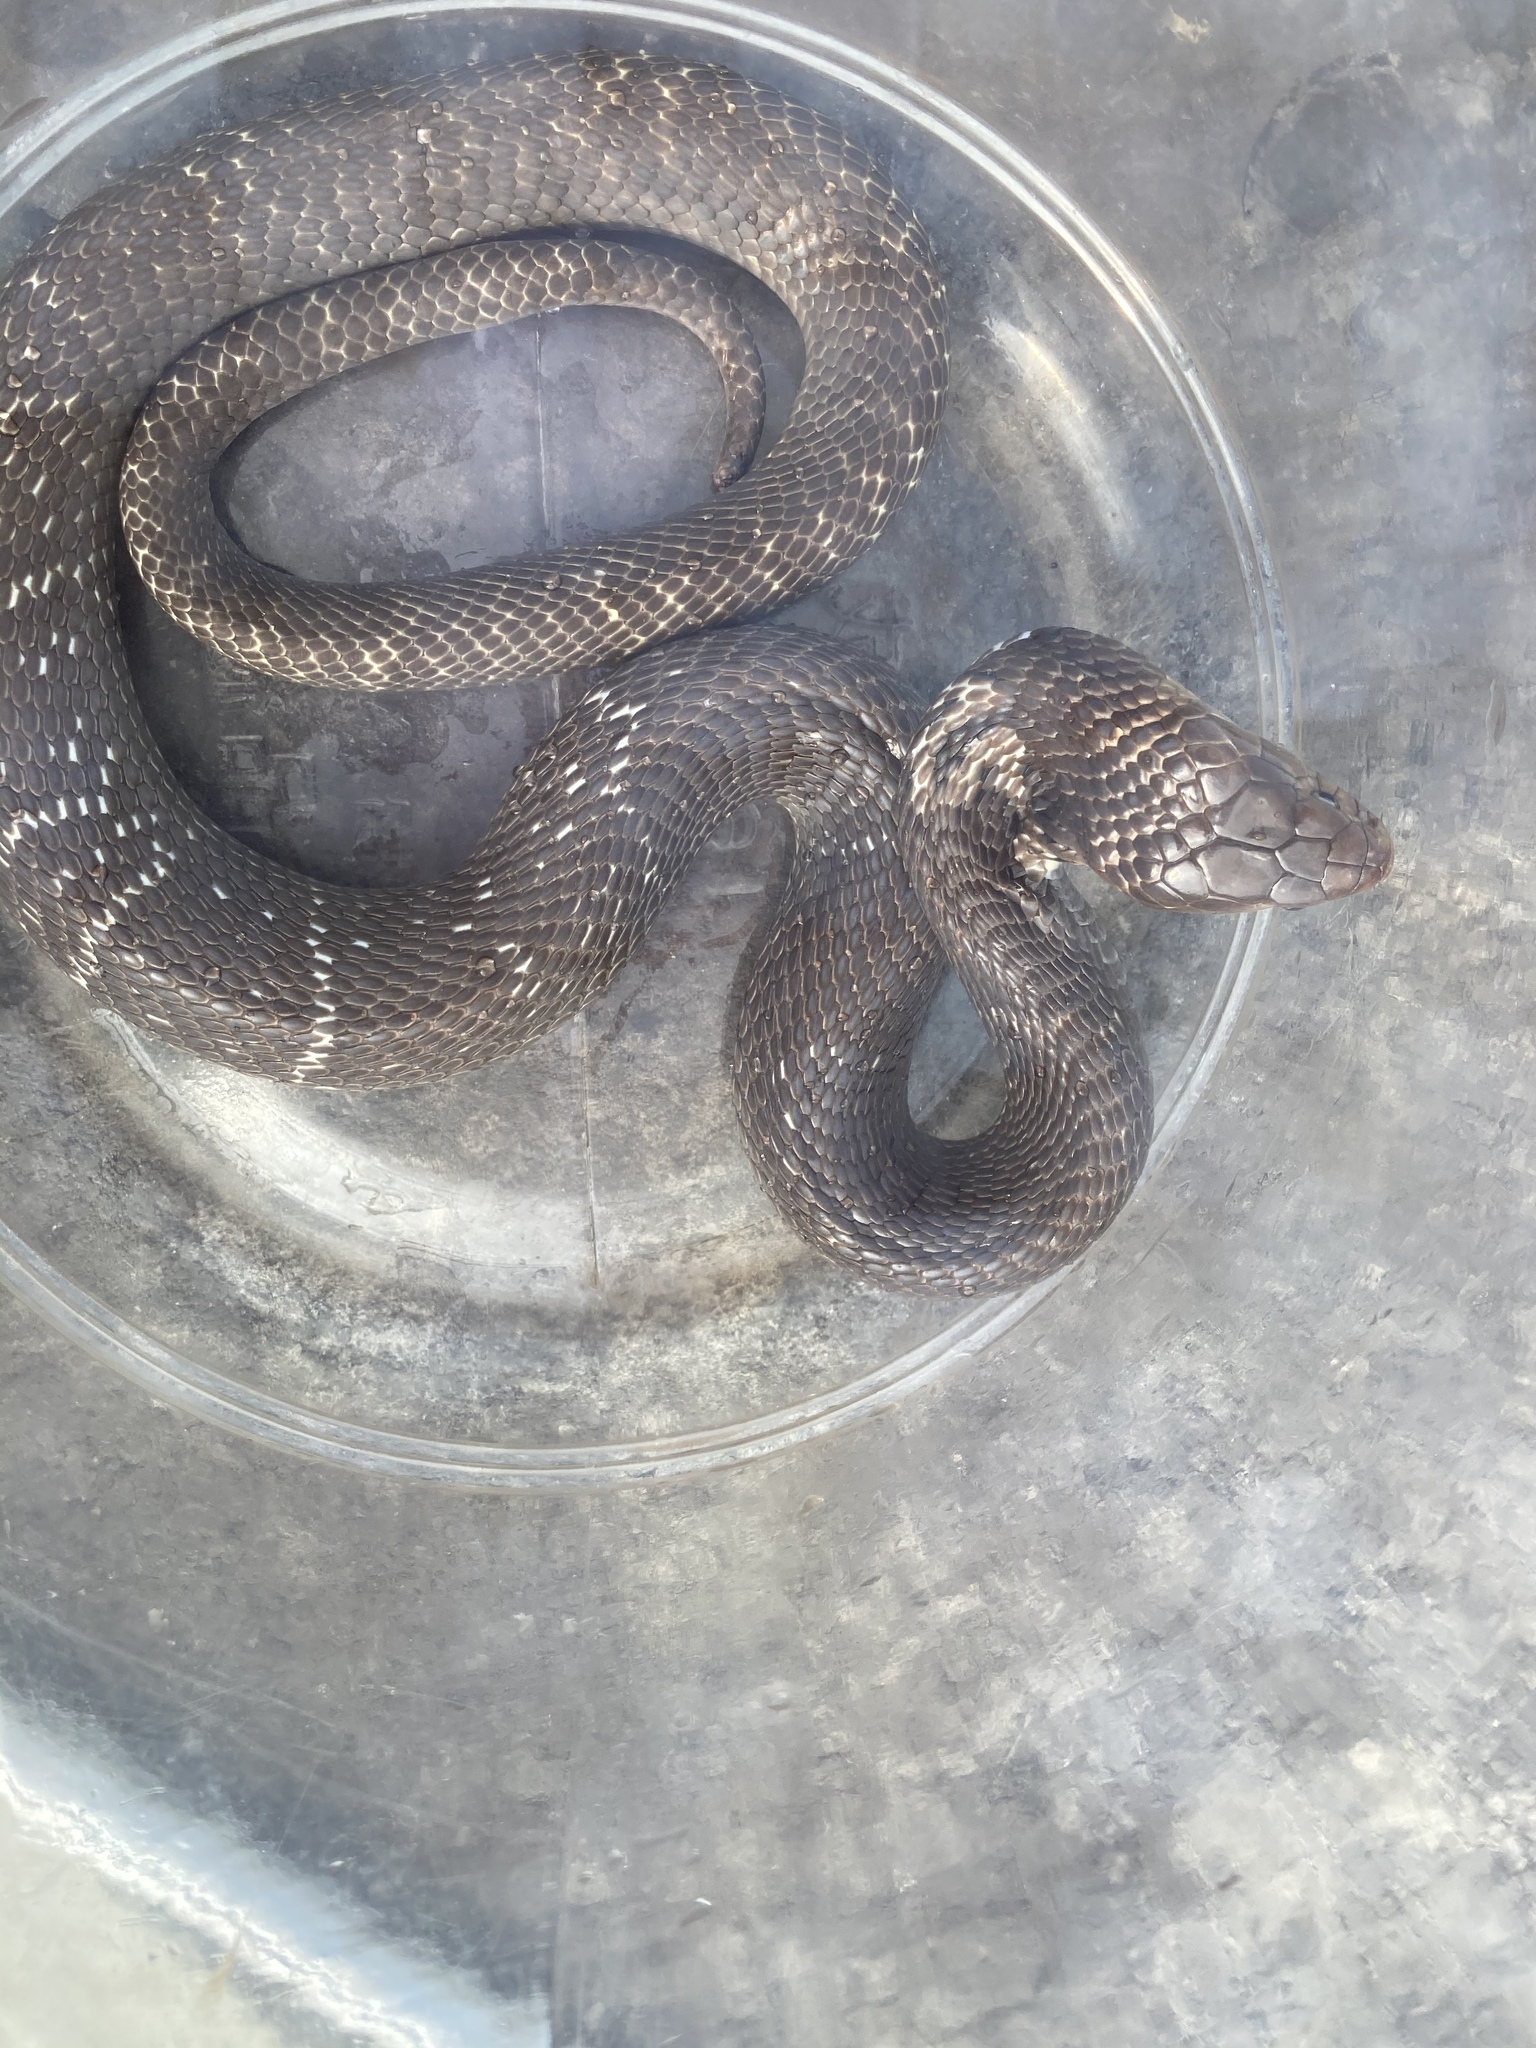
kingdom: Animalia
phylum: Chordata
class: Squamata
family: Elapidae
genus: Naja
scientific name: Naja atra
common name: Chinese cobra
